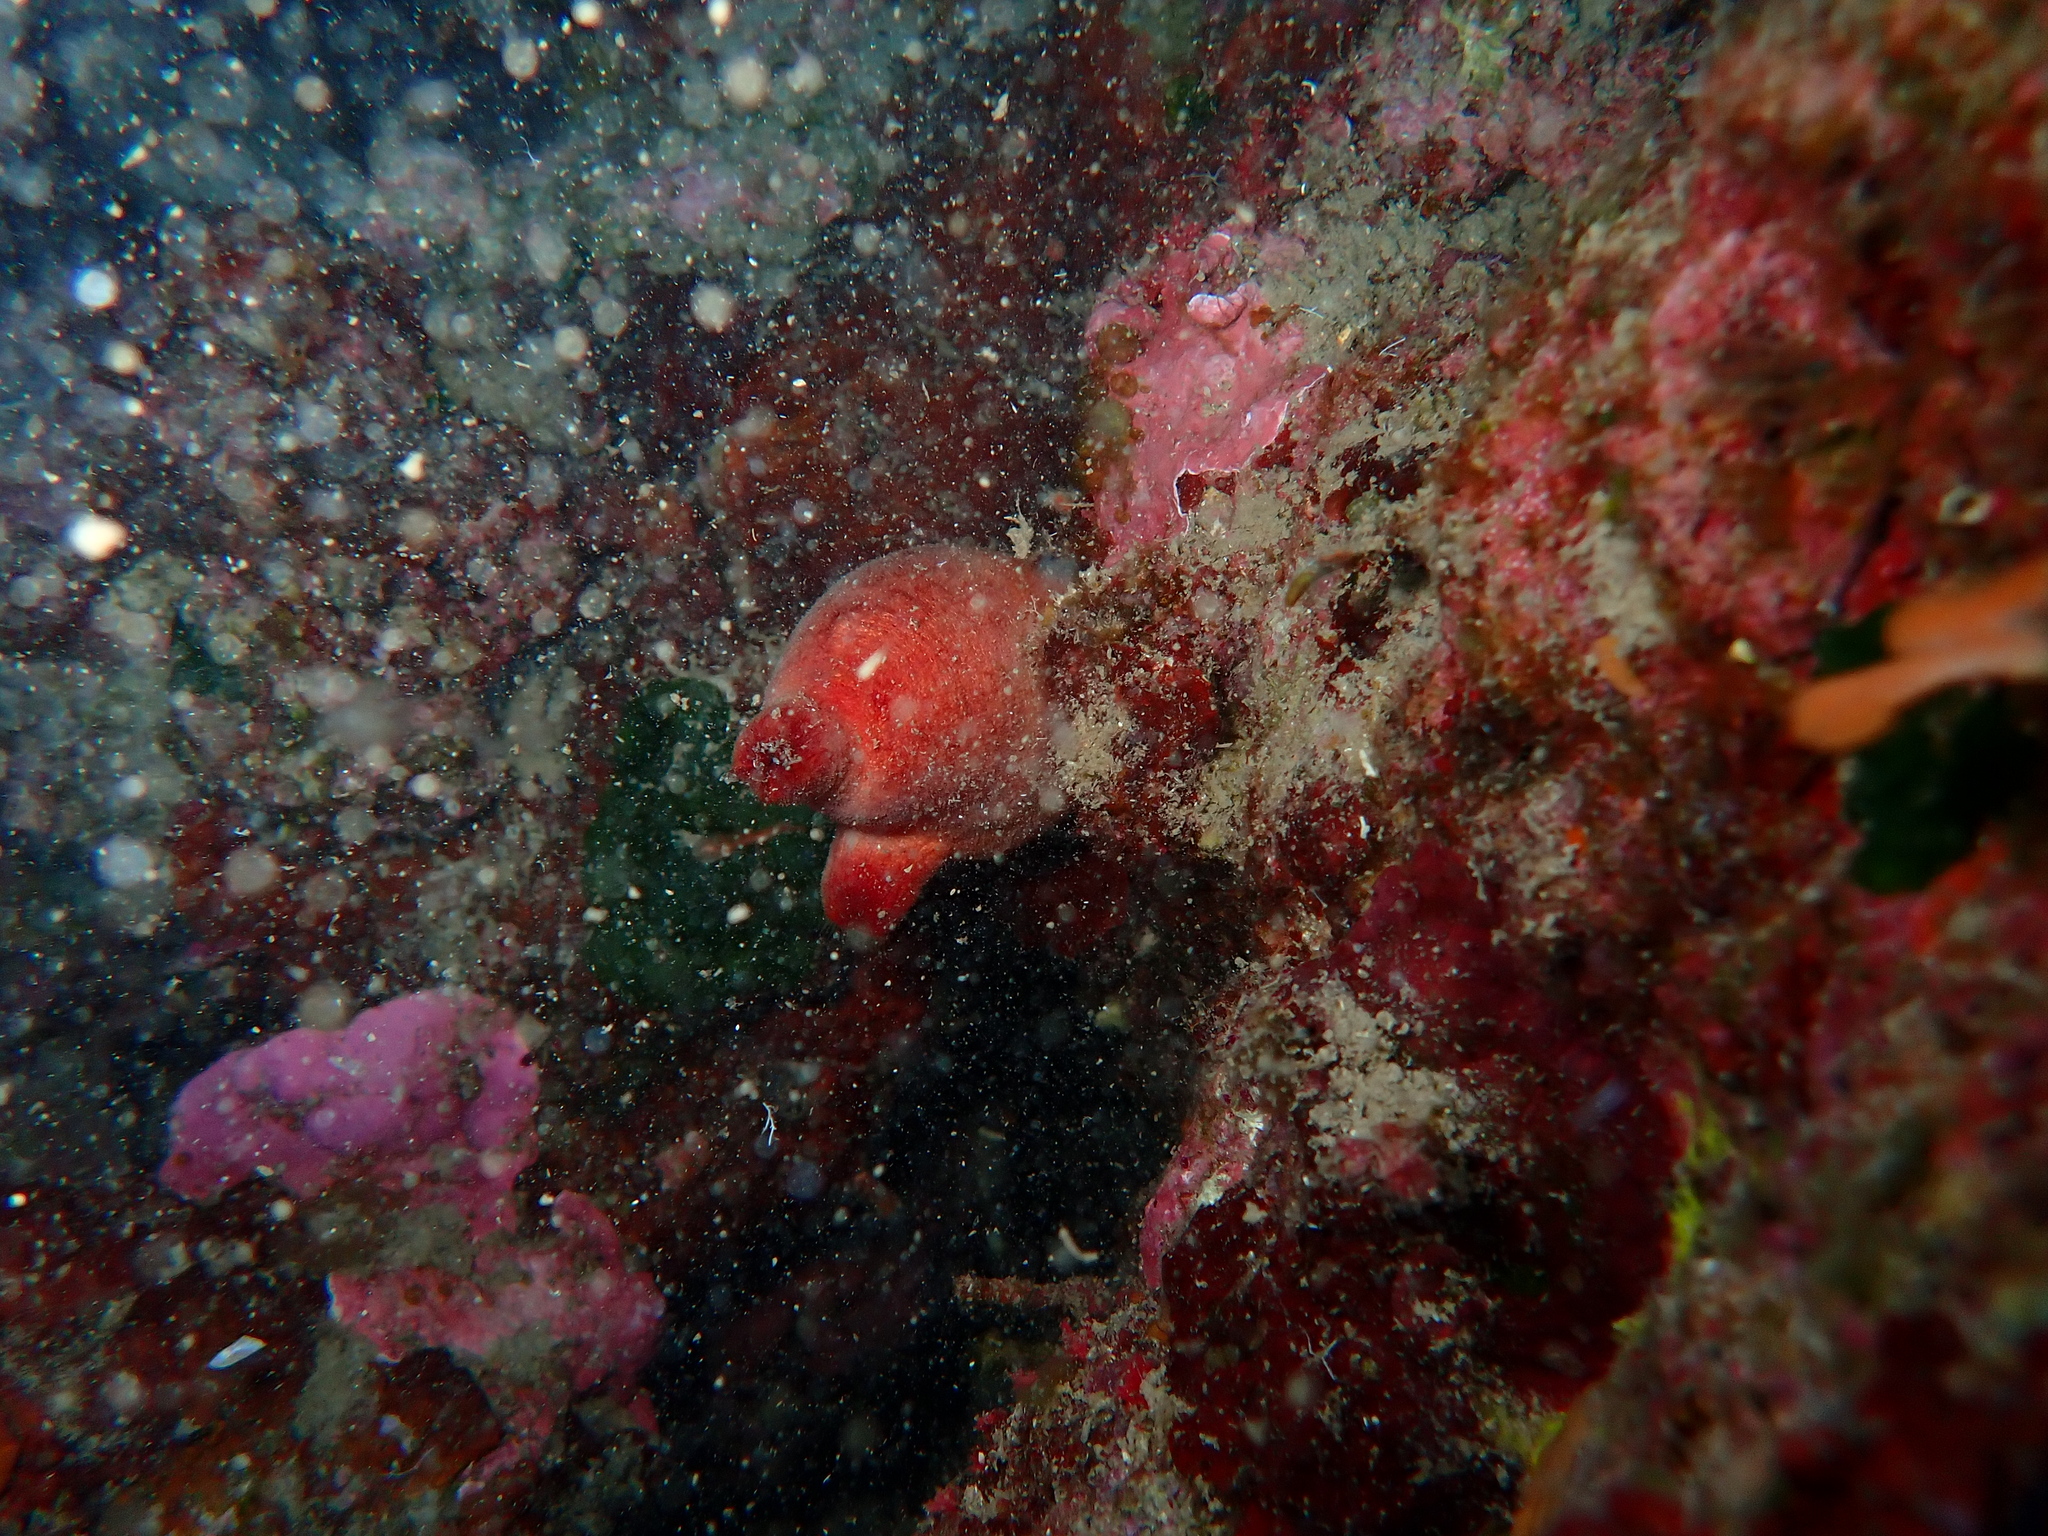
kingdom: Animalia
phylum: Chordata
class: Ascidiacea
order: Stolidobranchia
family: Pyuridae
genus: Halocynthia
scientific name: Halocynthia papillosa
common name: Red sea-squirt
